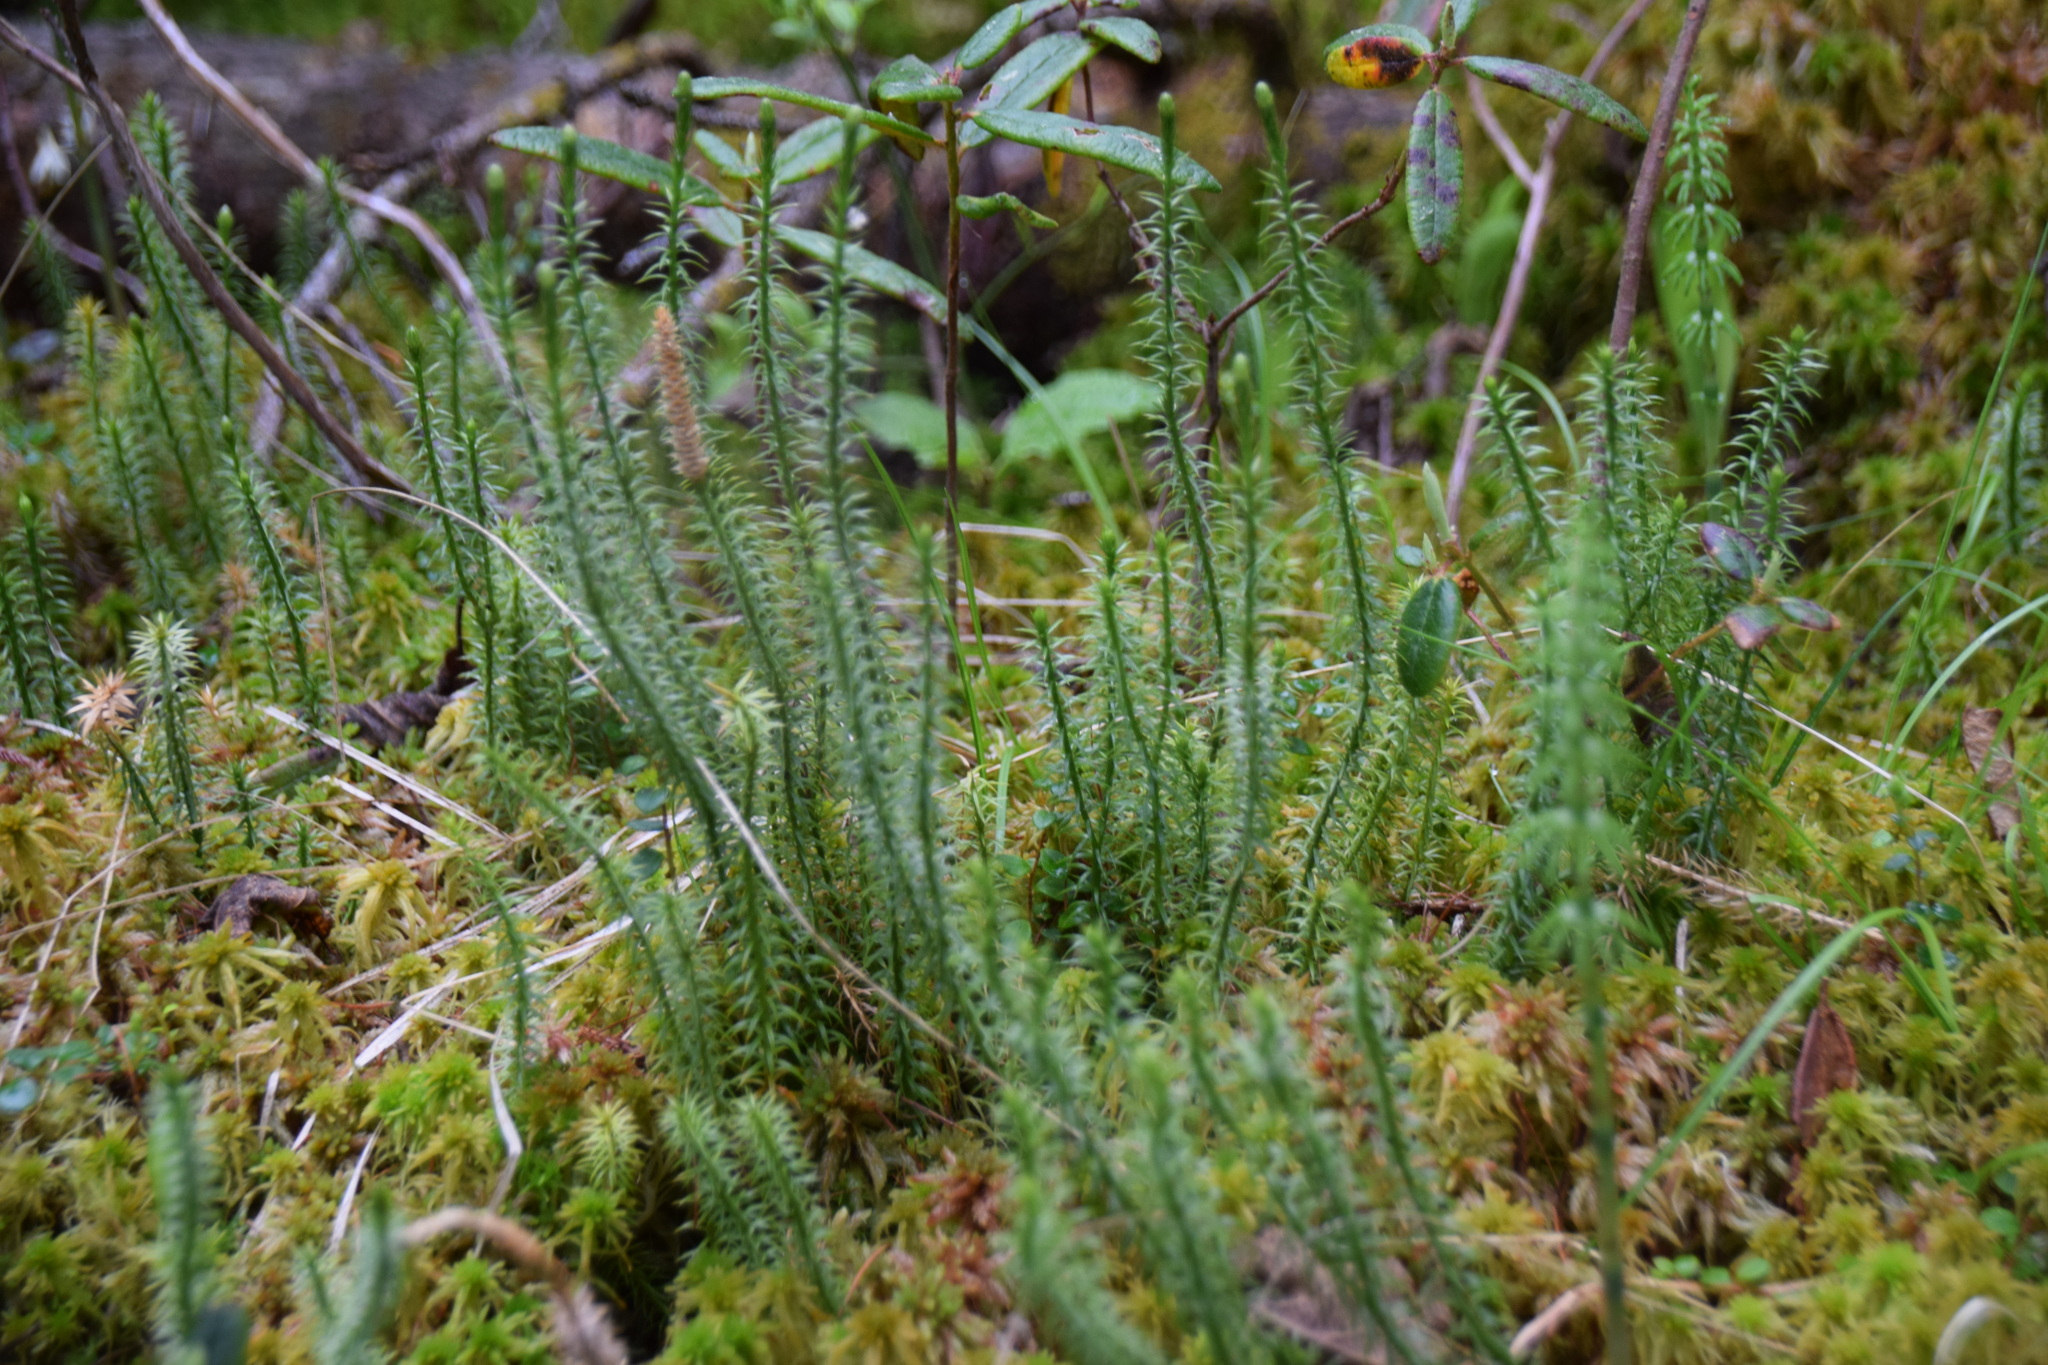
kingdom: Plantae
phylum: Tracheophyta
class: Lycopodiopsida
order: Lycopodiales
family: Lycopodiaceae
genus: Spinulum
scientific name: Spinulum annotinum
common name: Interrupted club-moss
